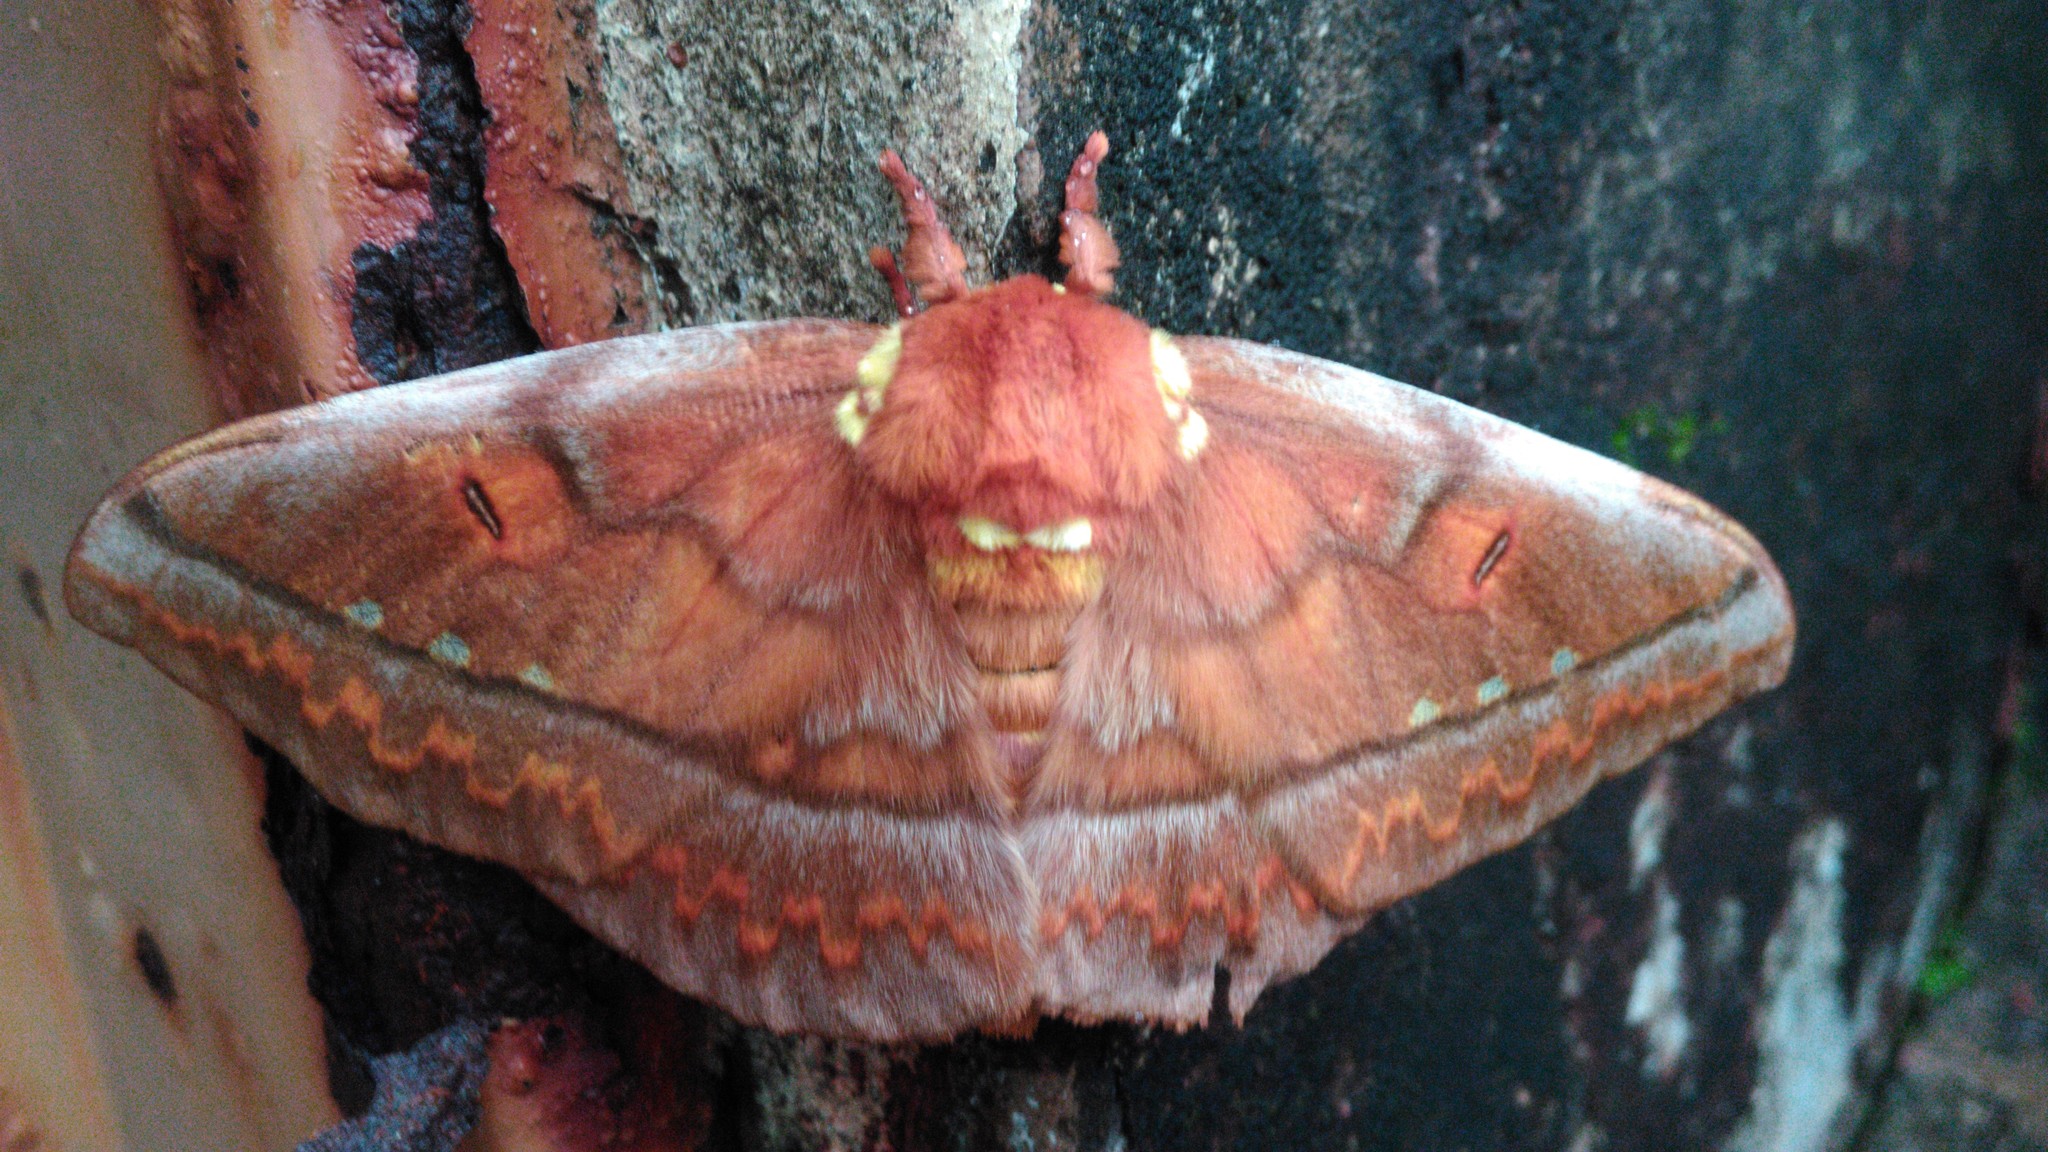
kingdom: Animalia
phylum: Arthropoda
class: Insecta
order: Lepidoptera
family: Saturniidae
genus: Procitheronia
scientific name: Procitheronia principalis
